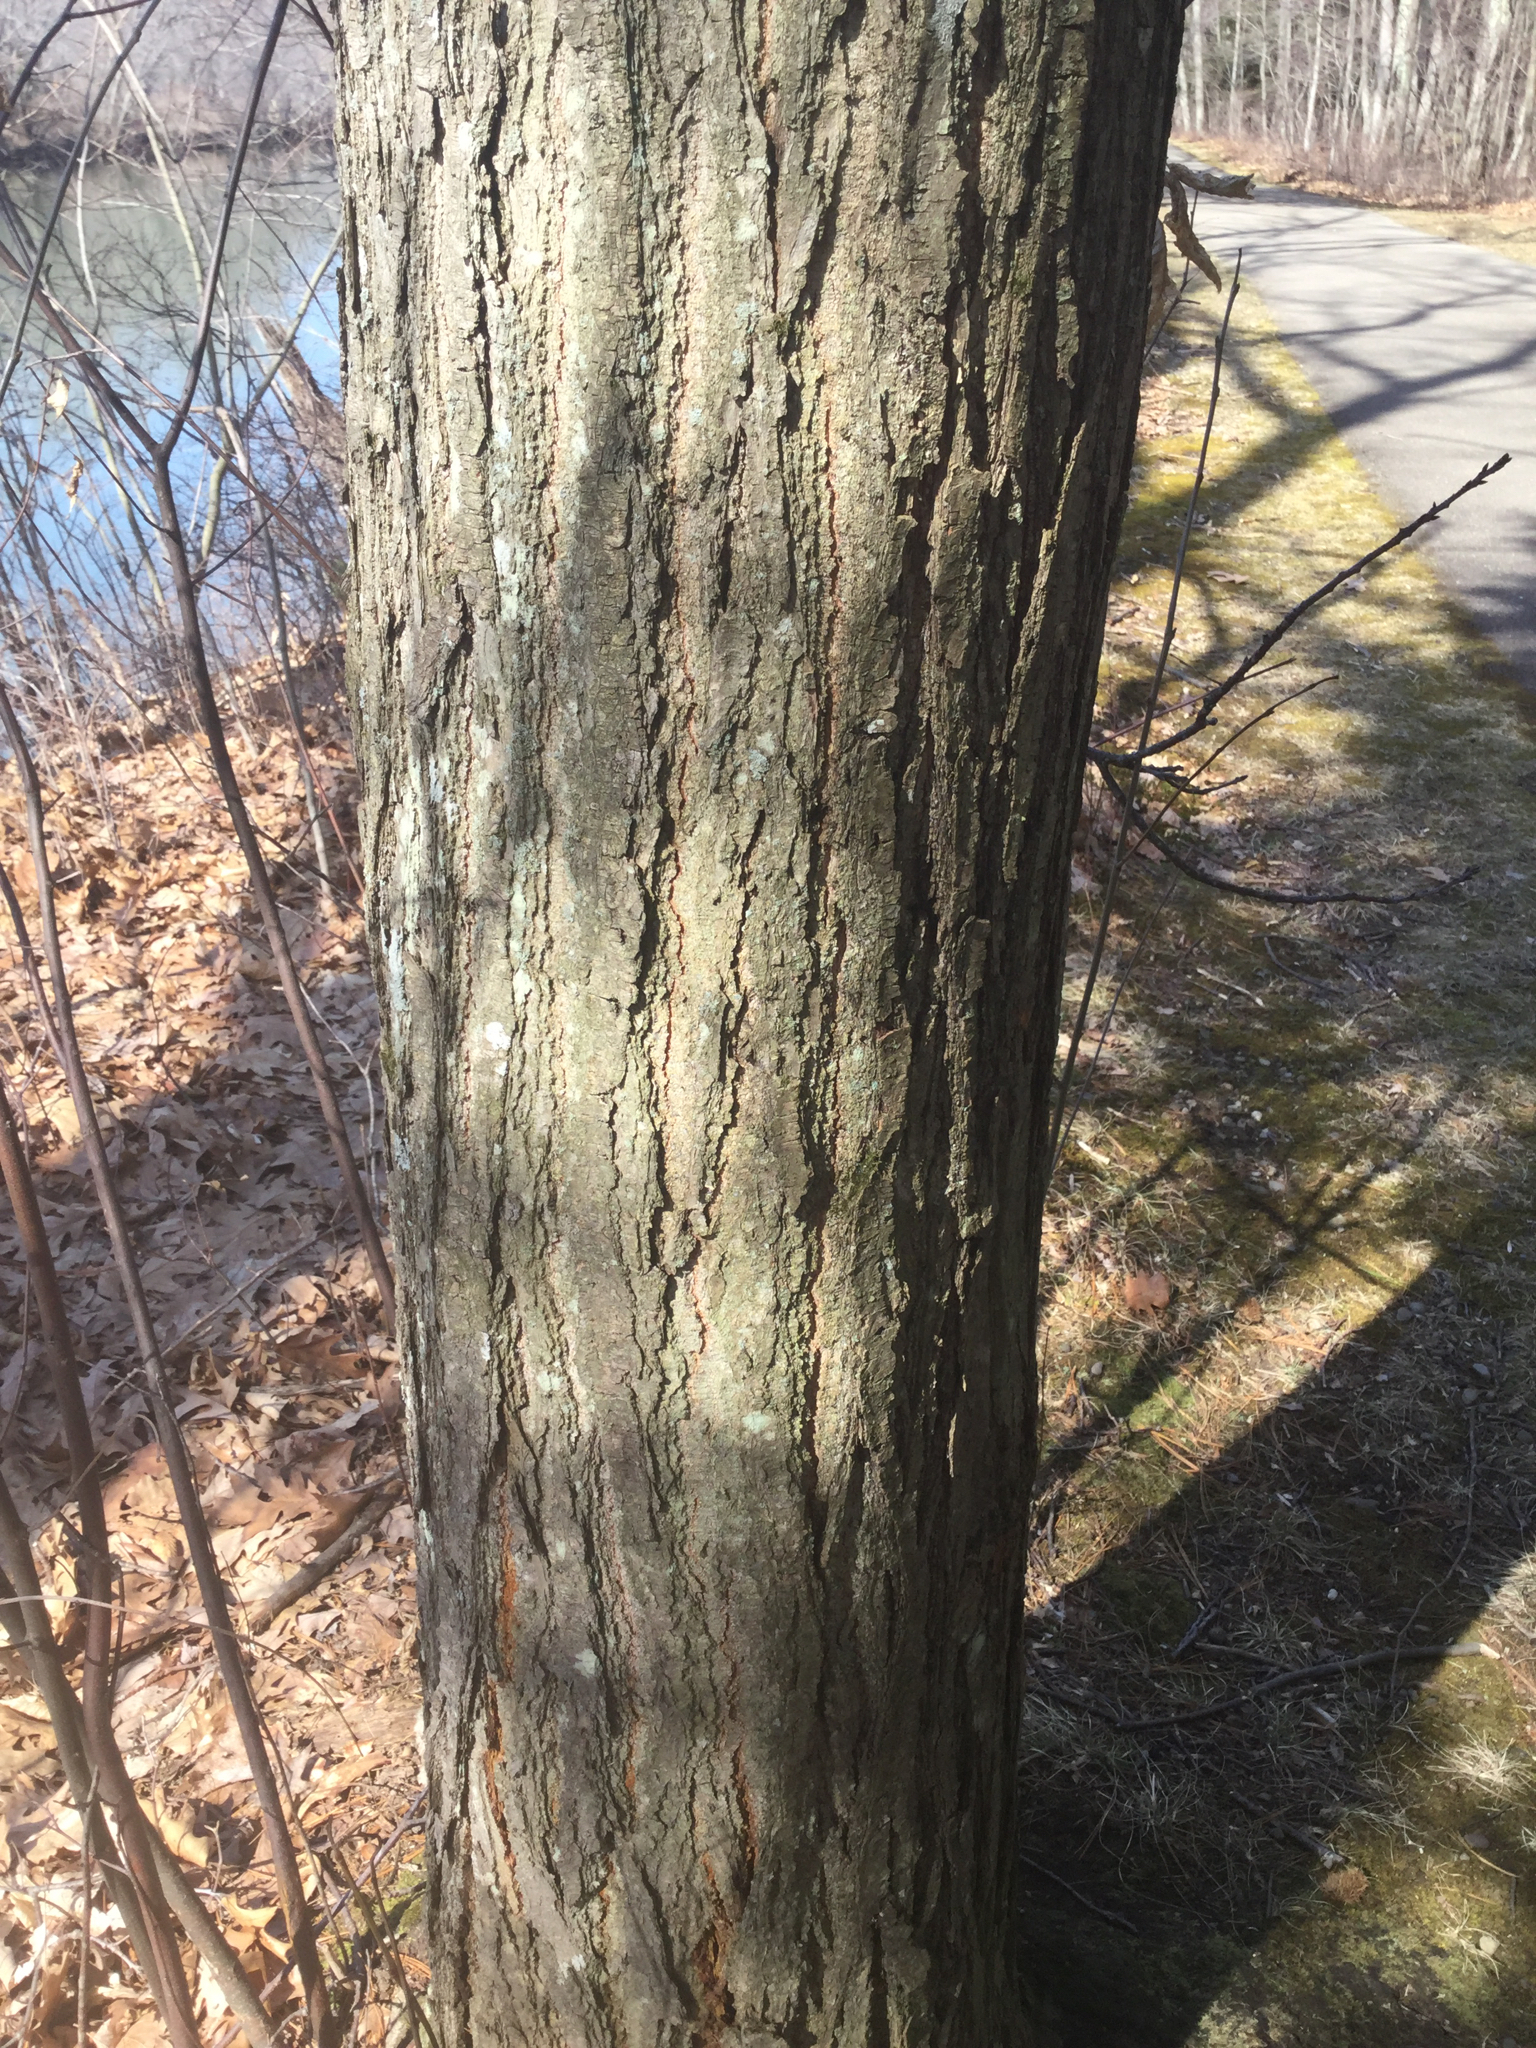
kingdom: Plantae
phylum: Tracheophyta
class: Magnoliopsida
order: Fagales
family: Fagaceae
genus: Castanea
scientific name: Castanea dentata
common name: American chestnut
